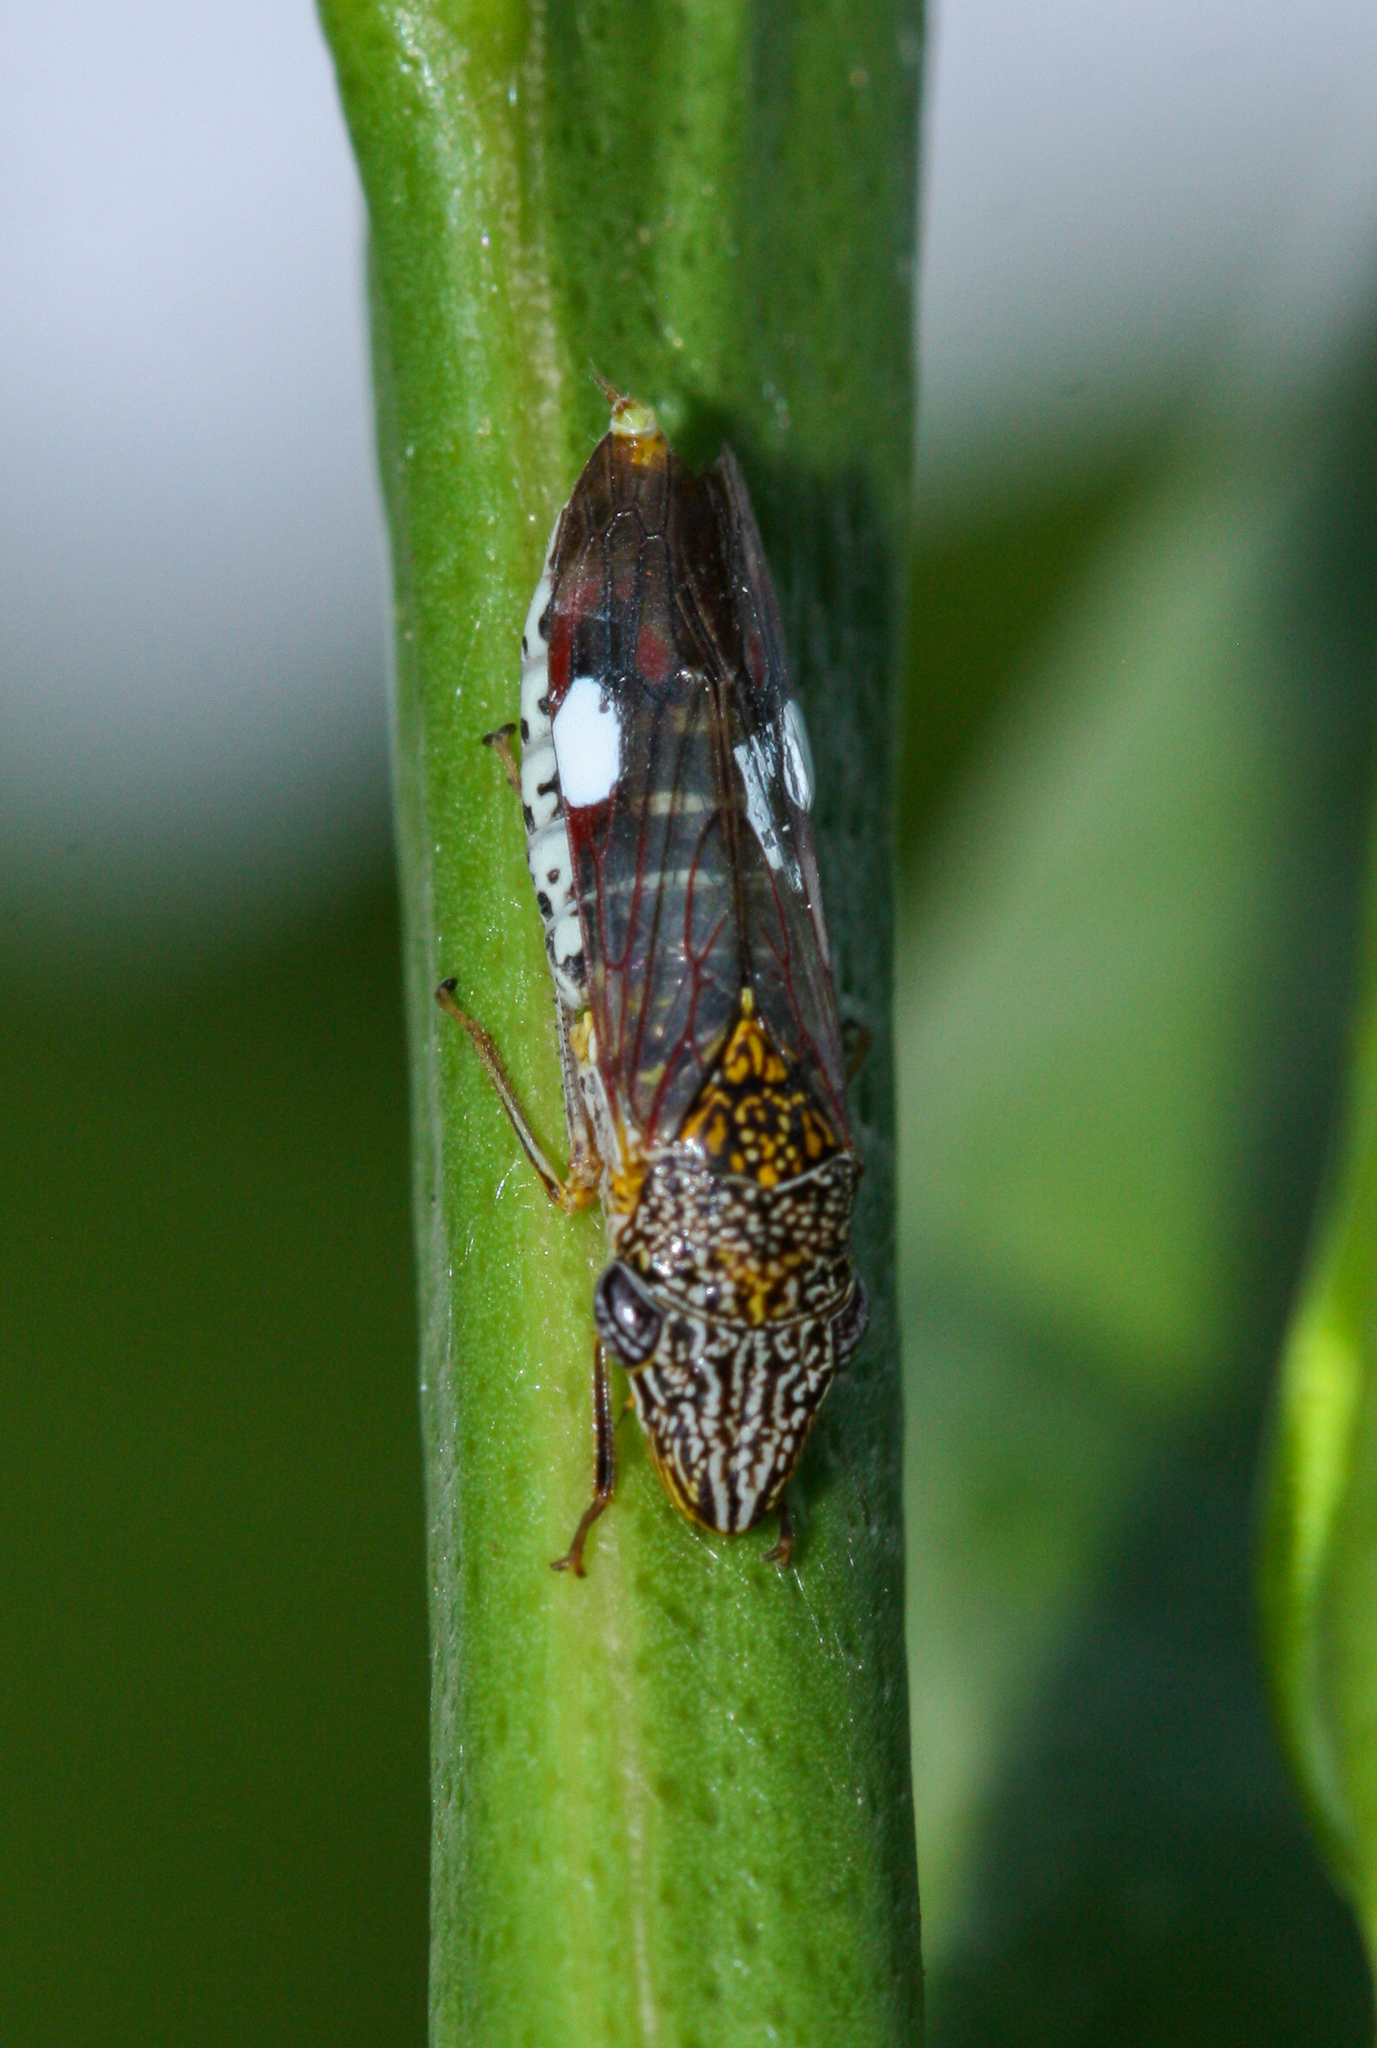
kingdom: Animalia
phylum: Arthropoda
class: Insecta
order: Hemiptera
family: Cicadellidae
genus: Homalodisca
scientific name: Homalodisca liturata
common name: Lacertate sharpshooter
